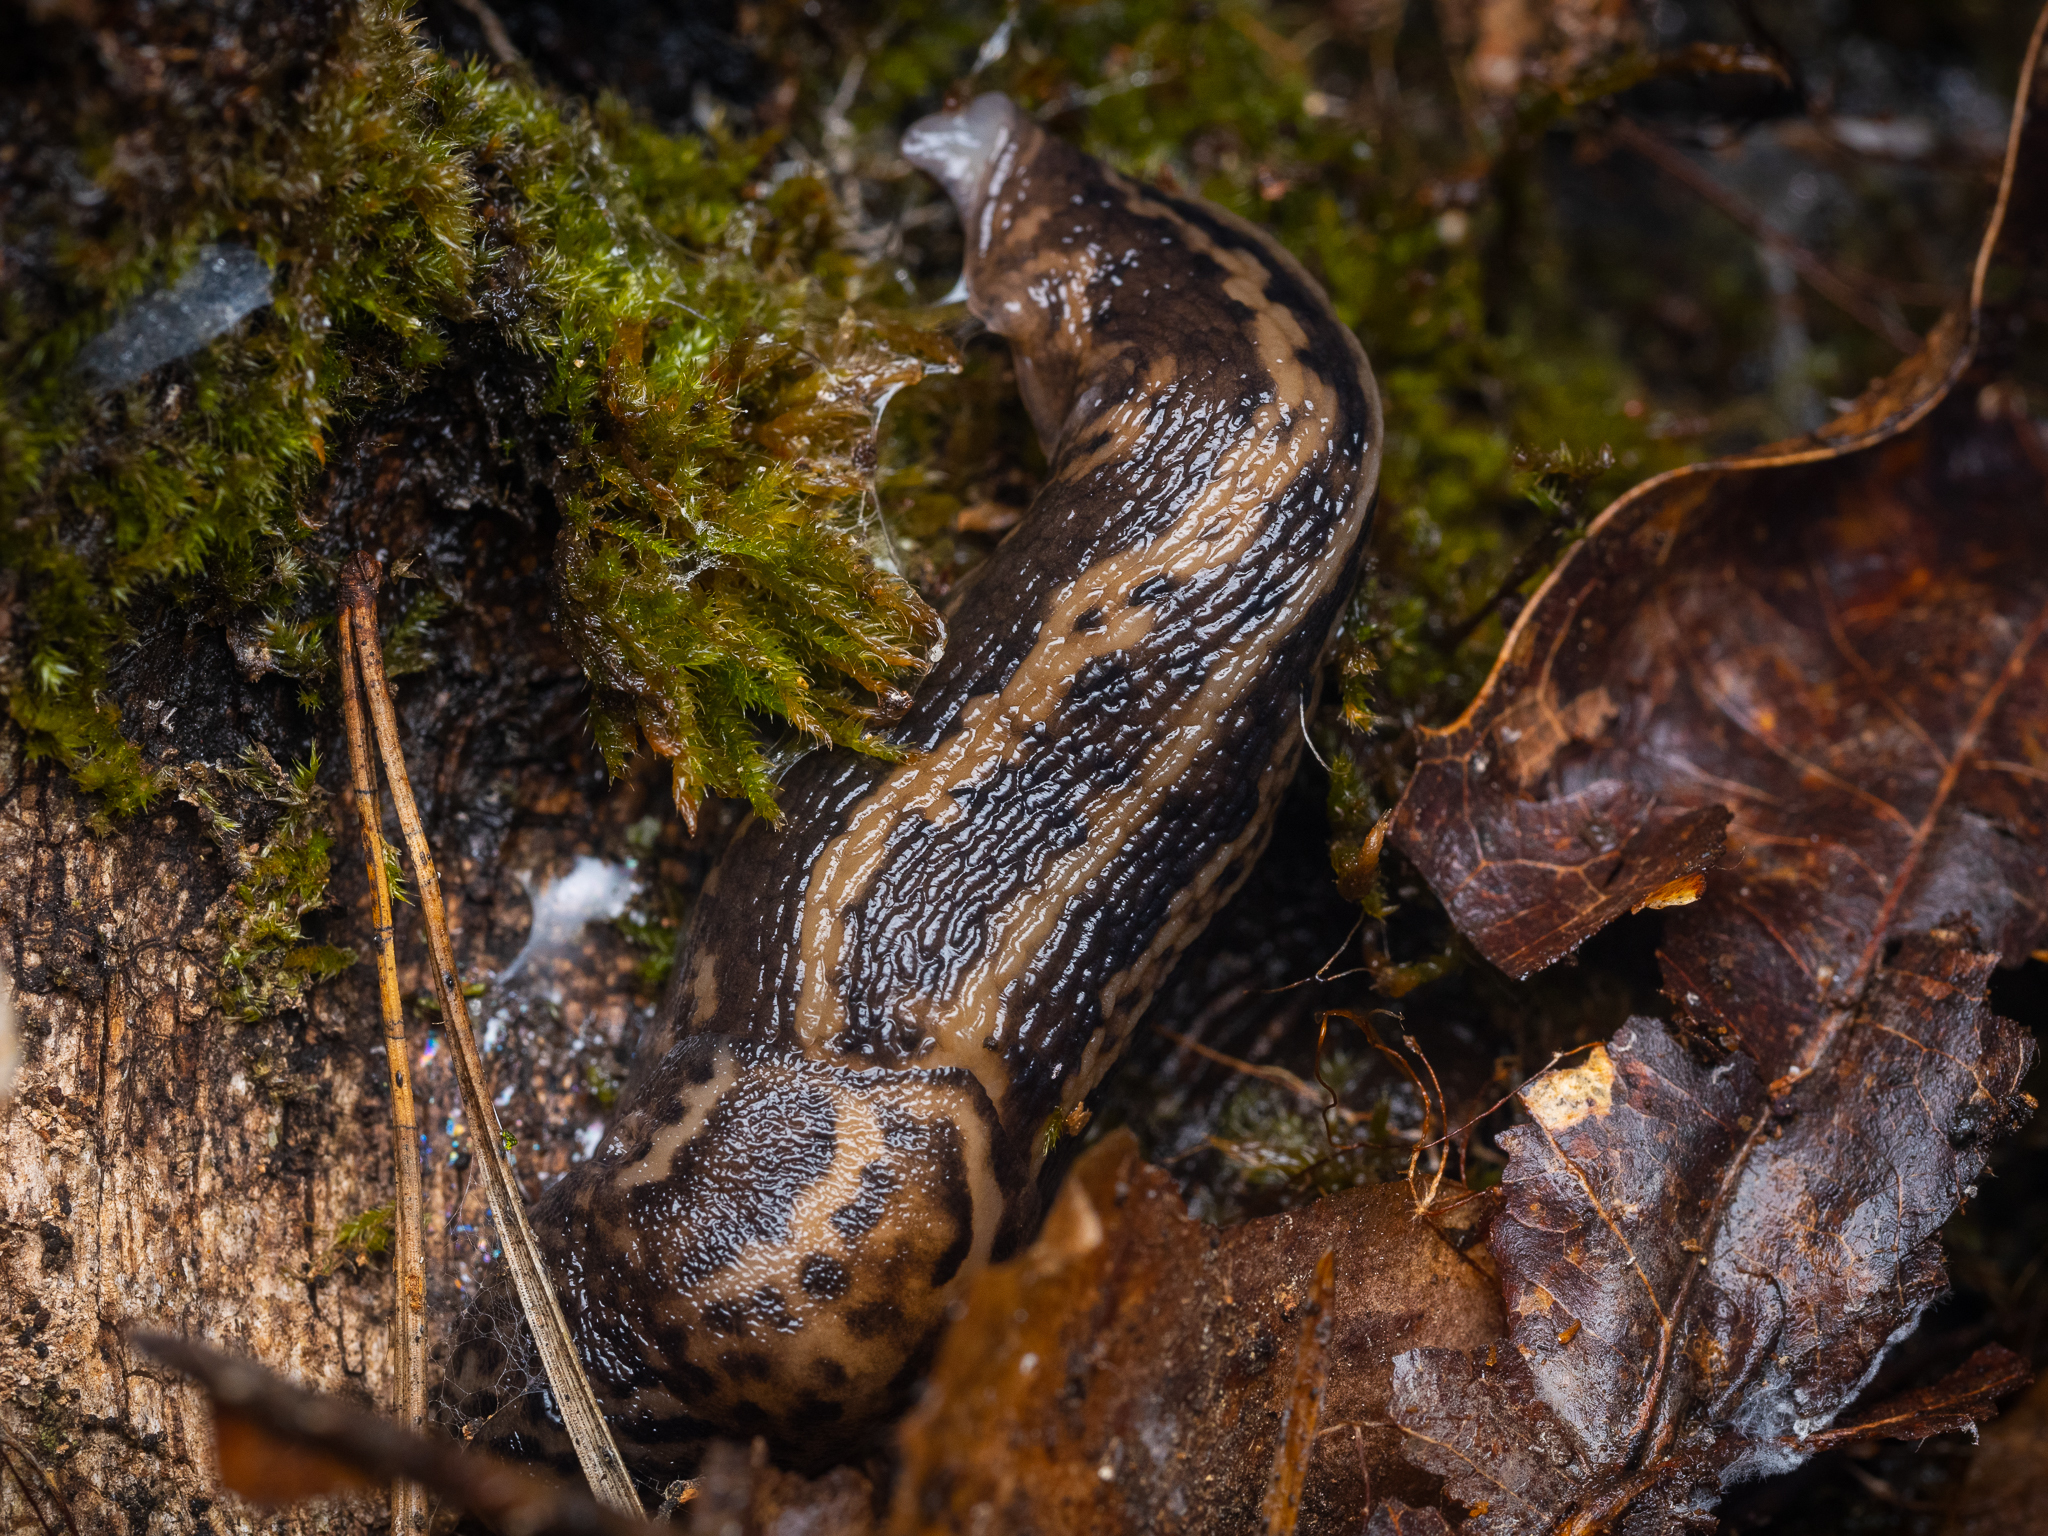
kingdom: Animalia
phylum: Mollusca
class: Gastropoda
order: Stylommatophora
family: Limacidae
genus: Limax
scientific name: Limax maximus
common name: Great grey slug
